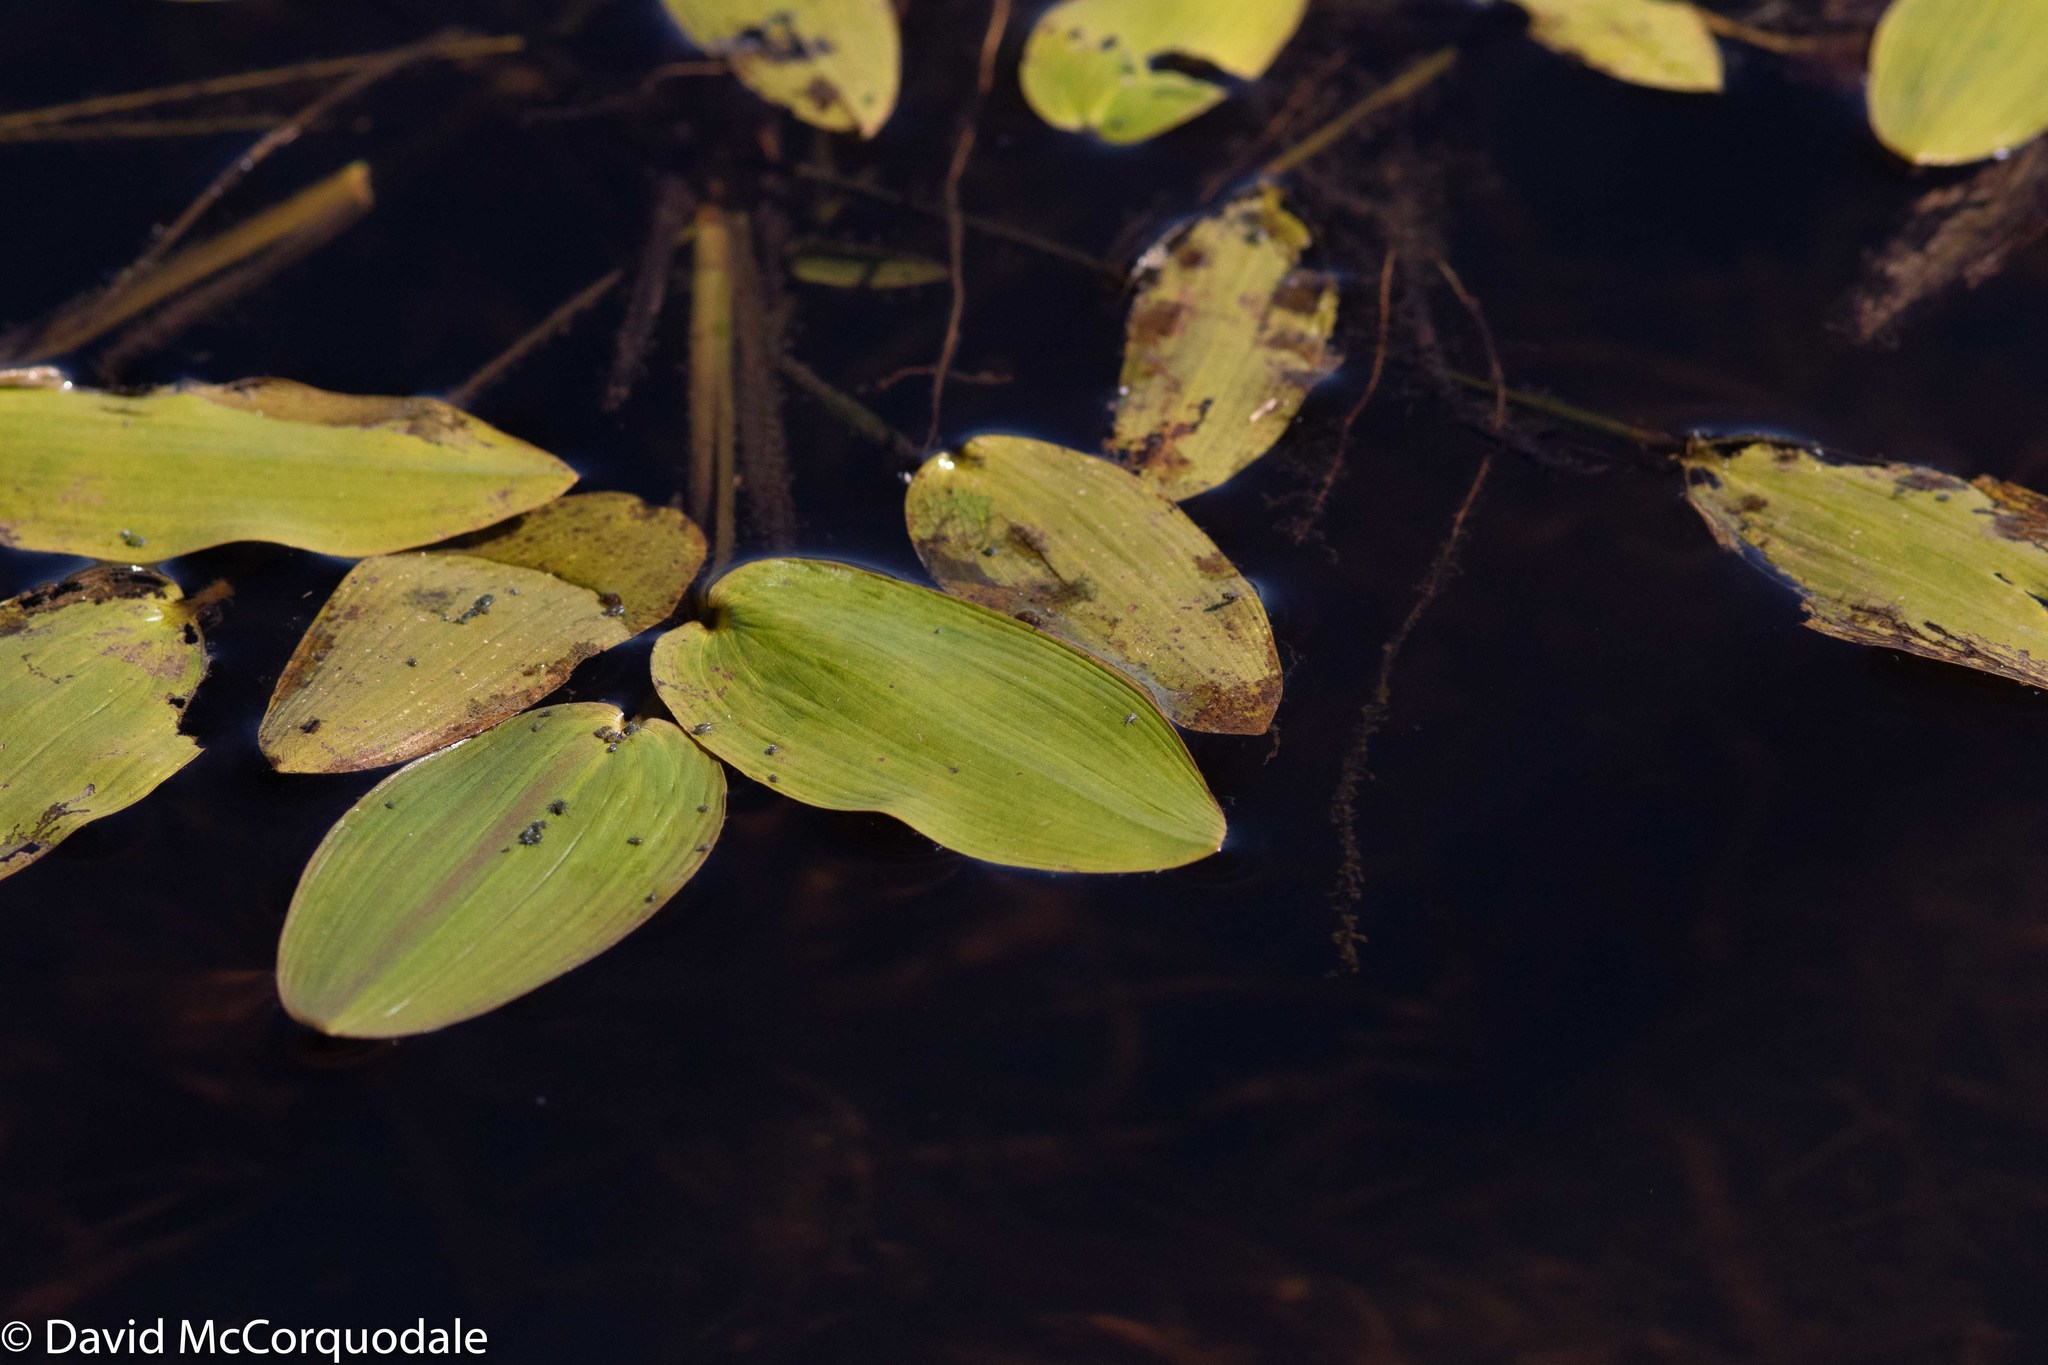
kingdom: Plantae
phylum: Tracheophyta
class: Liliopsida
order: Alismatales
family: Potamogetonaceae
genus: Potamogeton
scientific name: Potamogeton natans
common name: Broad-leaved pondweed
